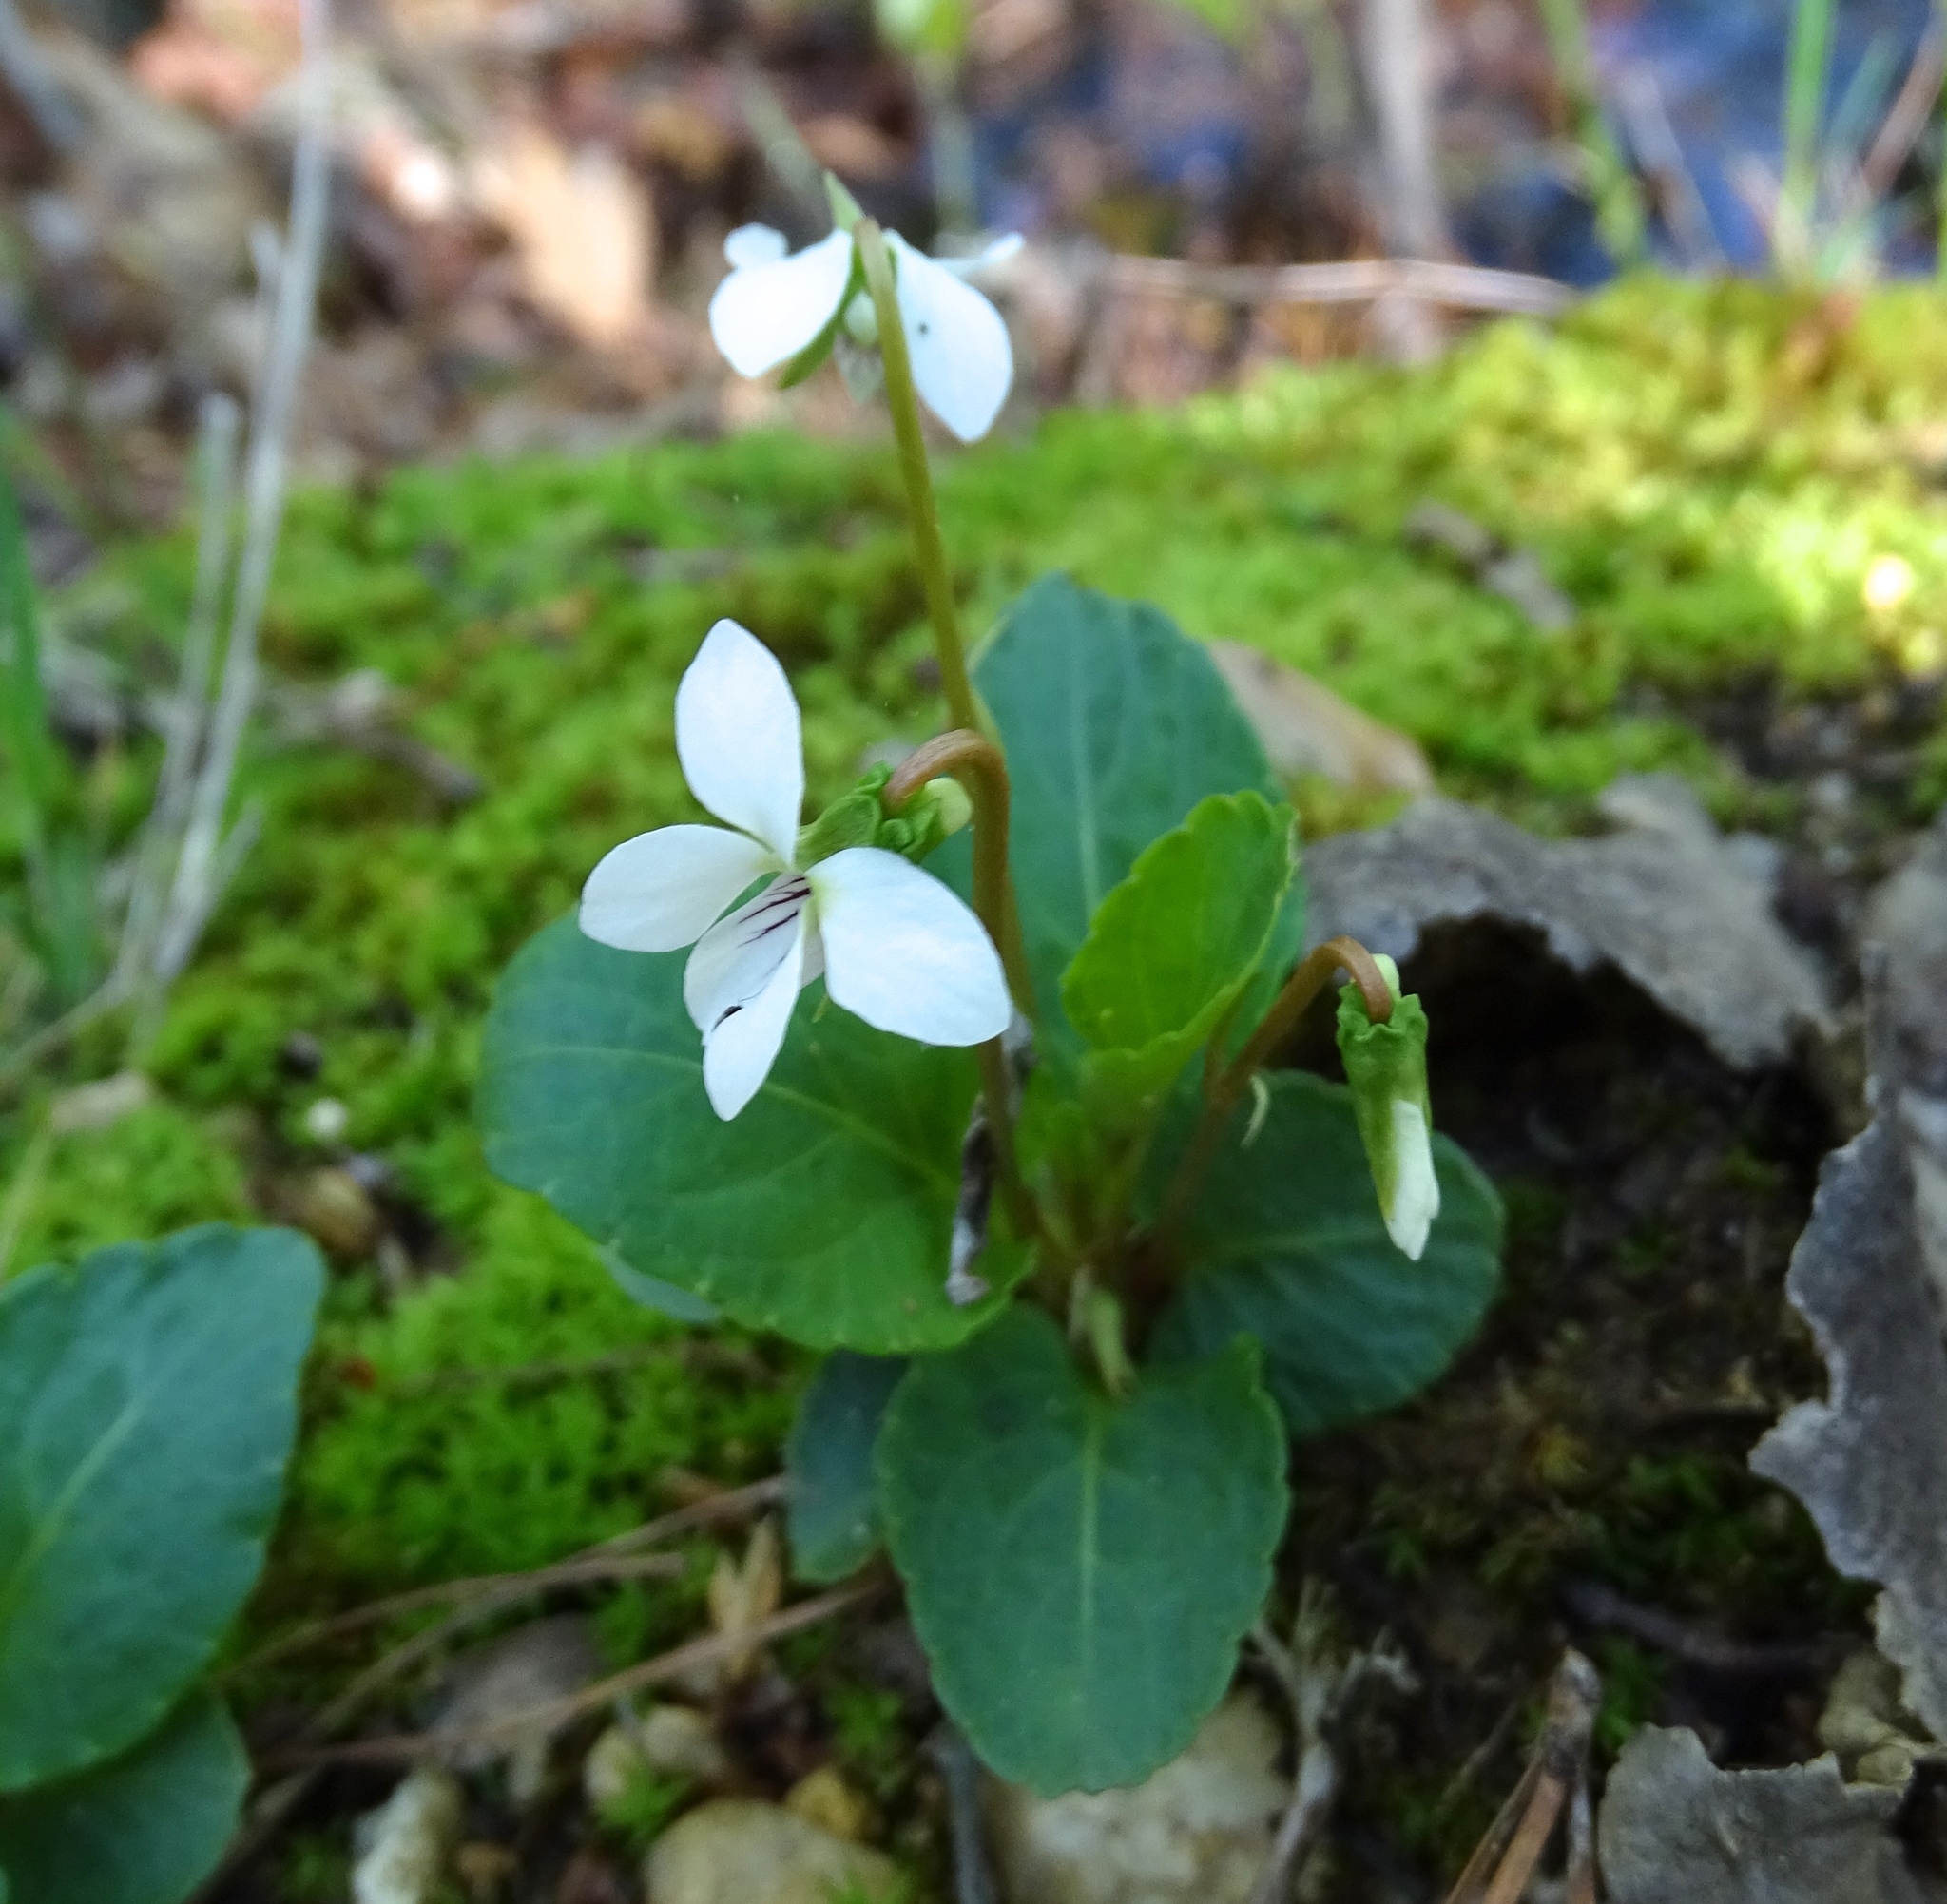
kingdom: Plantae
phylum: Tracheophyta
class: Magnoliopsida
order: Malpighiales
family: Violaceae
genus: Viola
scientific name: Viola primulifolia
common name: Primrose-leaf violet
